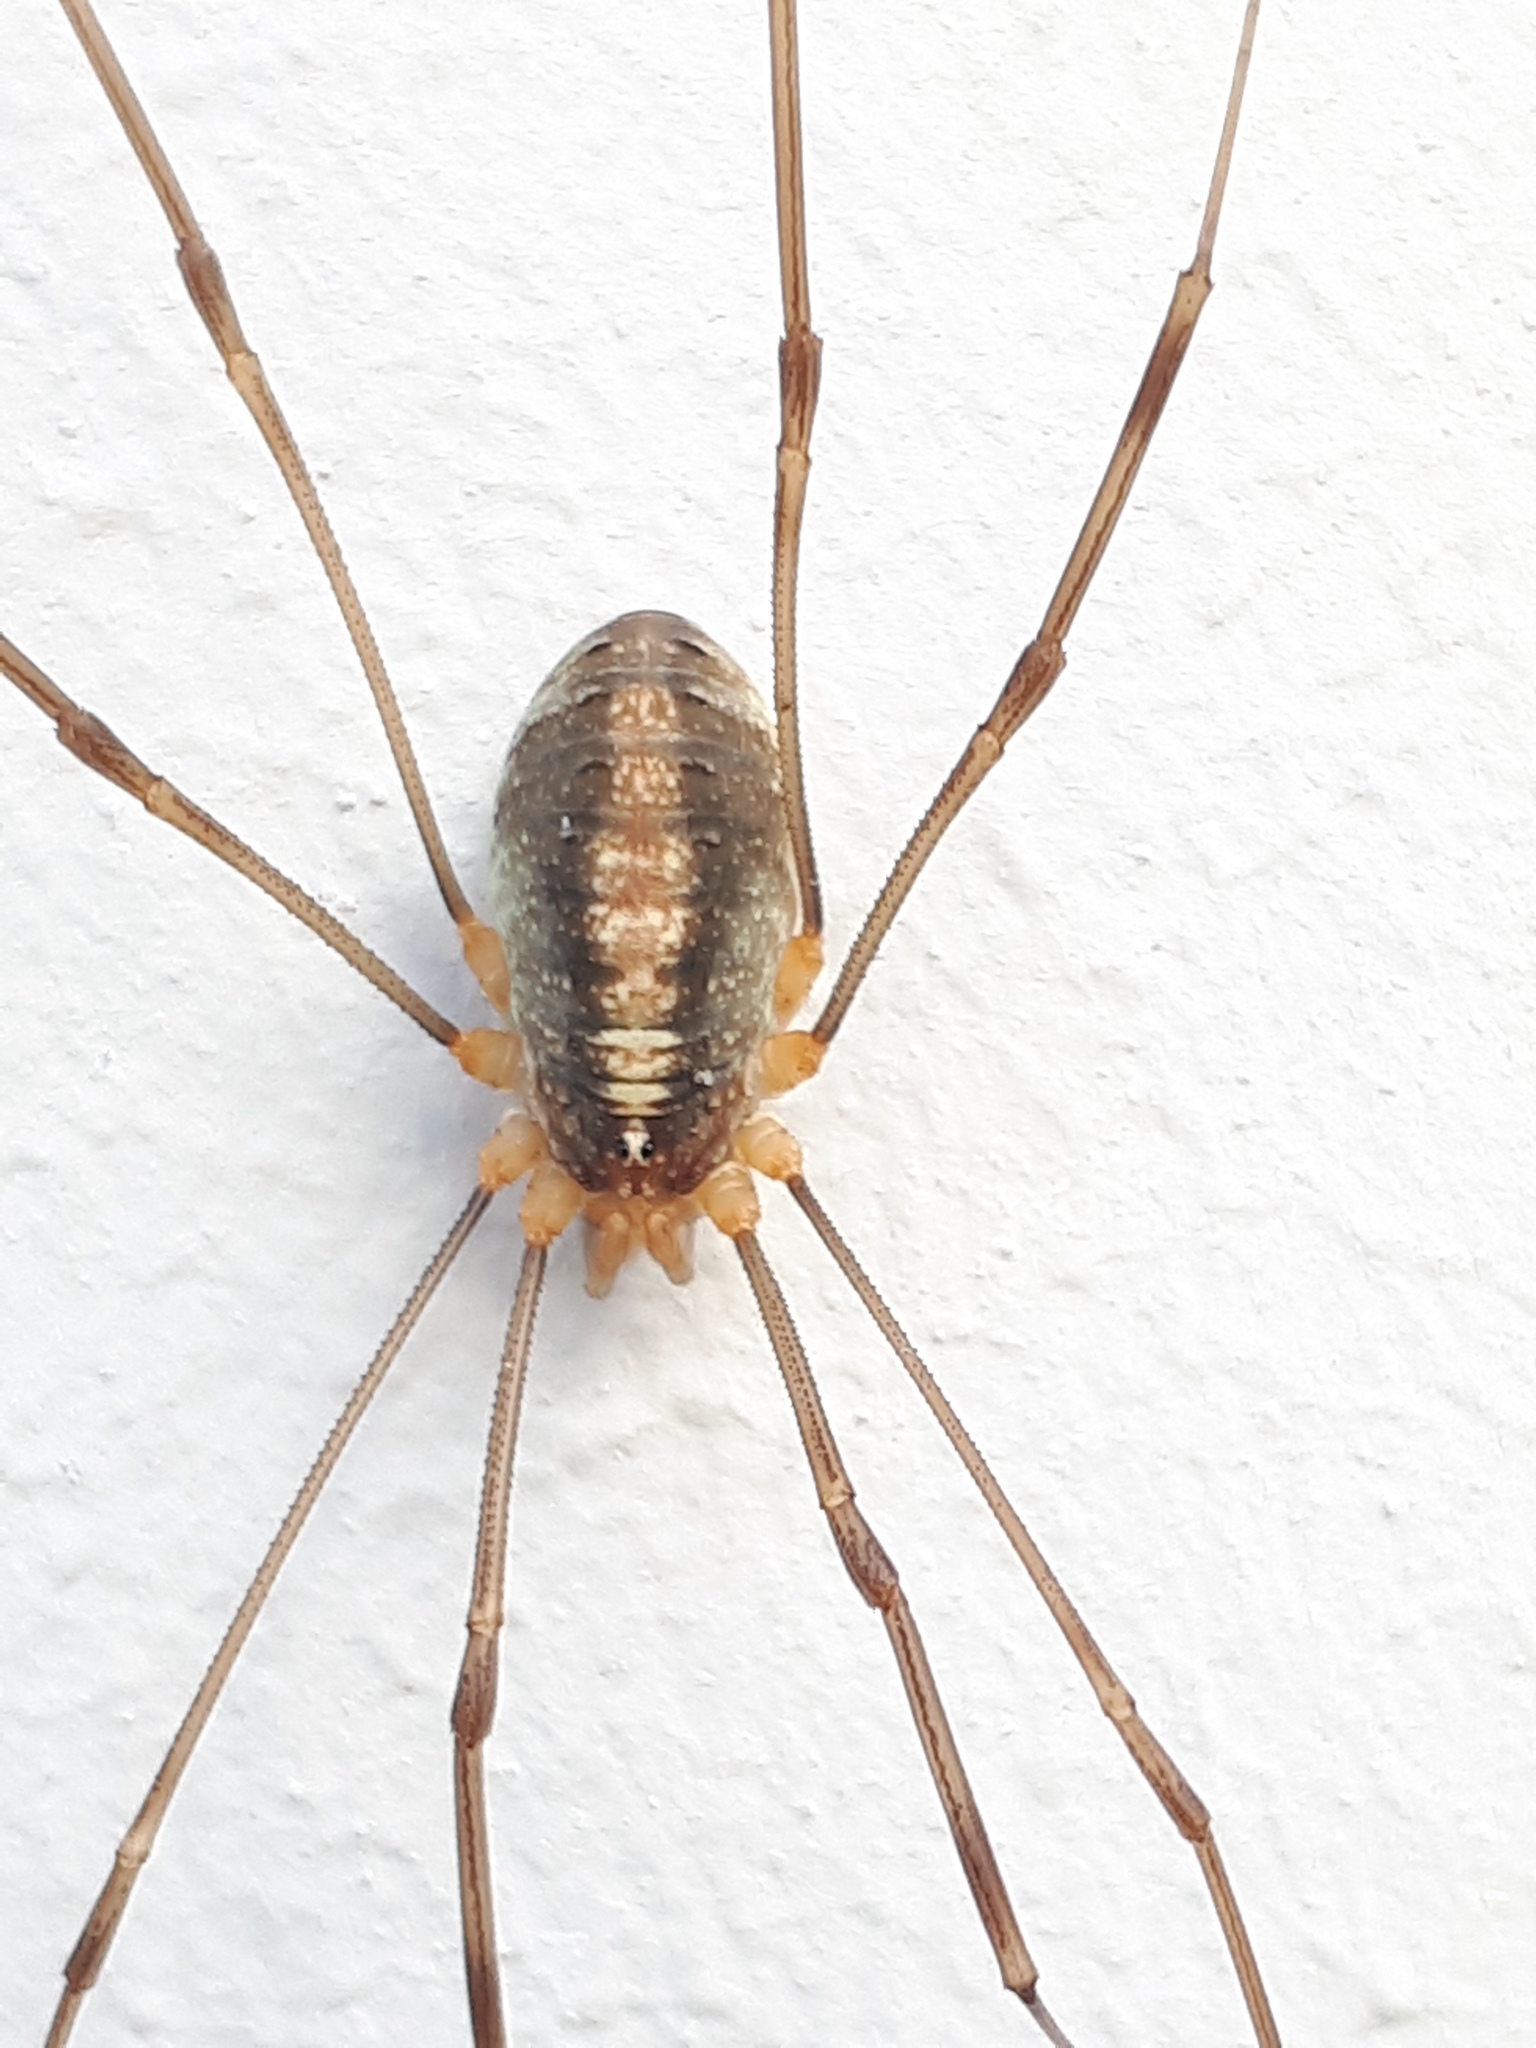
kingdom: Animalia
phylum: Arthropoda
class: Arachnida
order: Opiliones
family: Phalangiidae
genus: Opilio
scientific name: Opilio canestrinii
